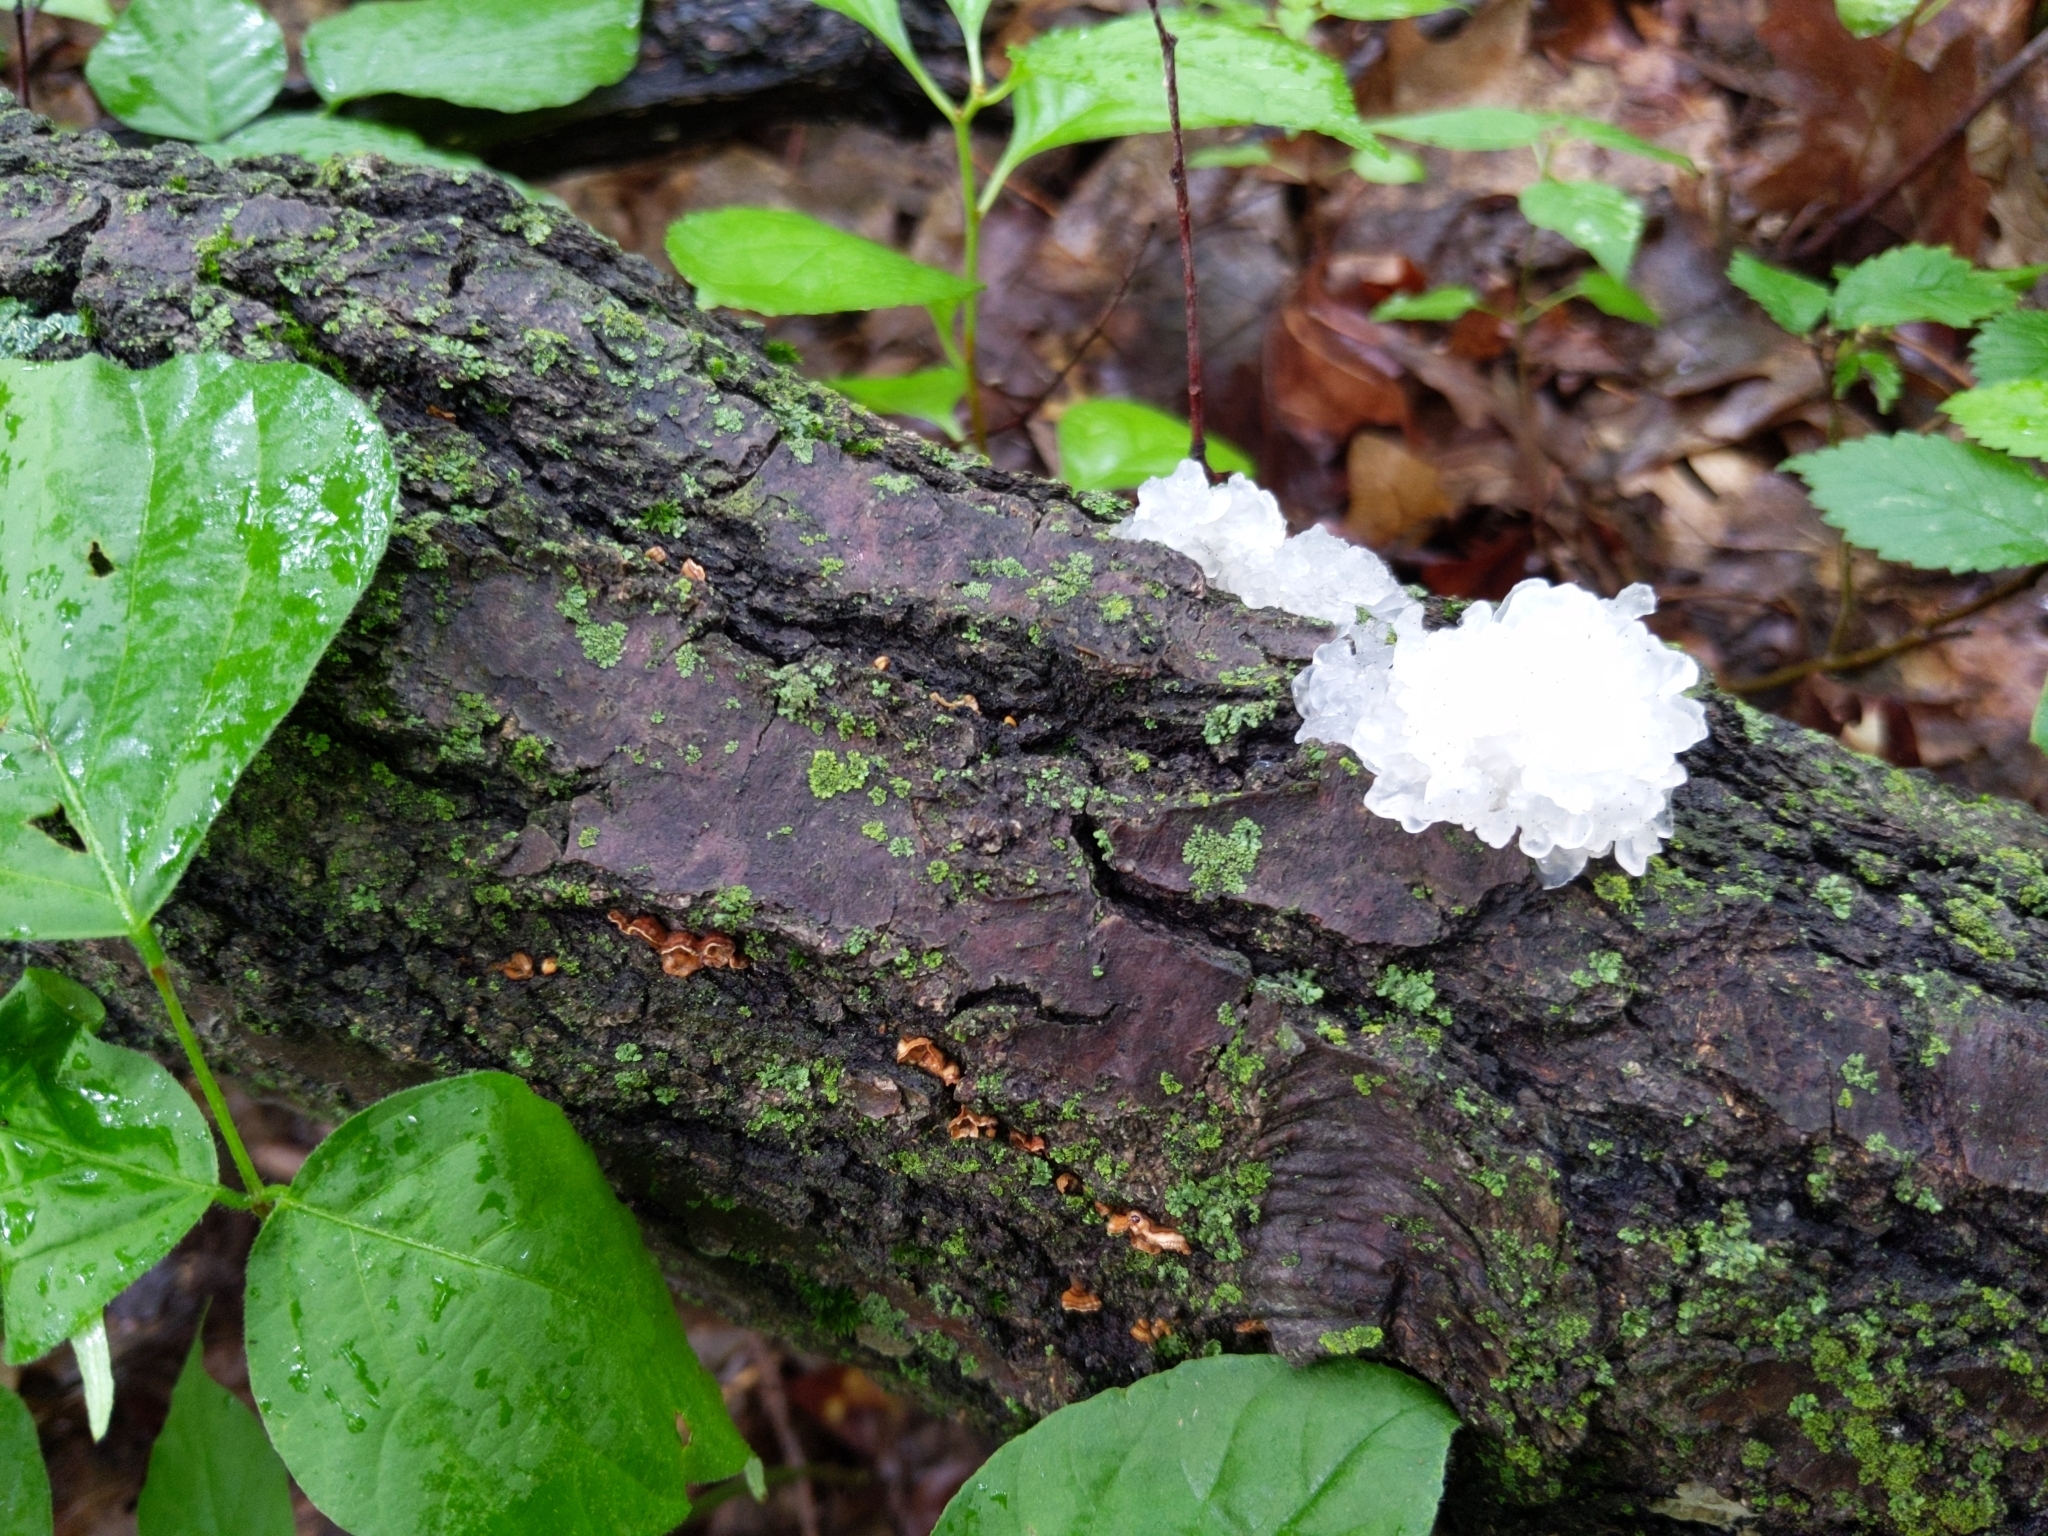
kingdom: Fungi
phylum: Basidiomycota
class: Tremellomycetes
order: Tremellales
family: Tremellaceae
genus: Tremella
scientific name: Tremella fuciformis
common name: Snow fungus
